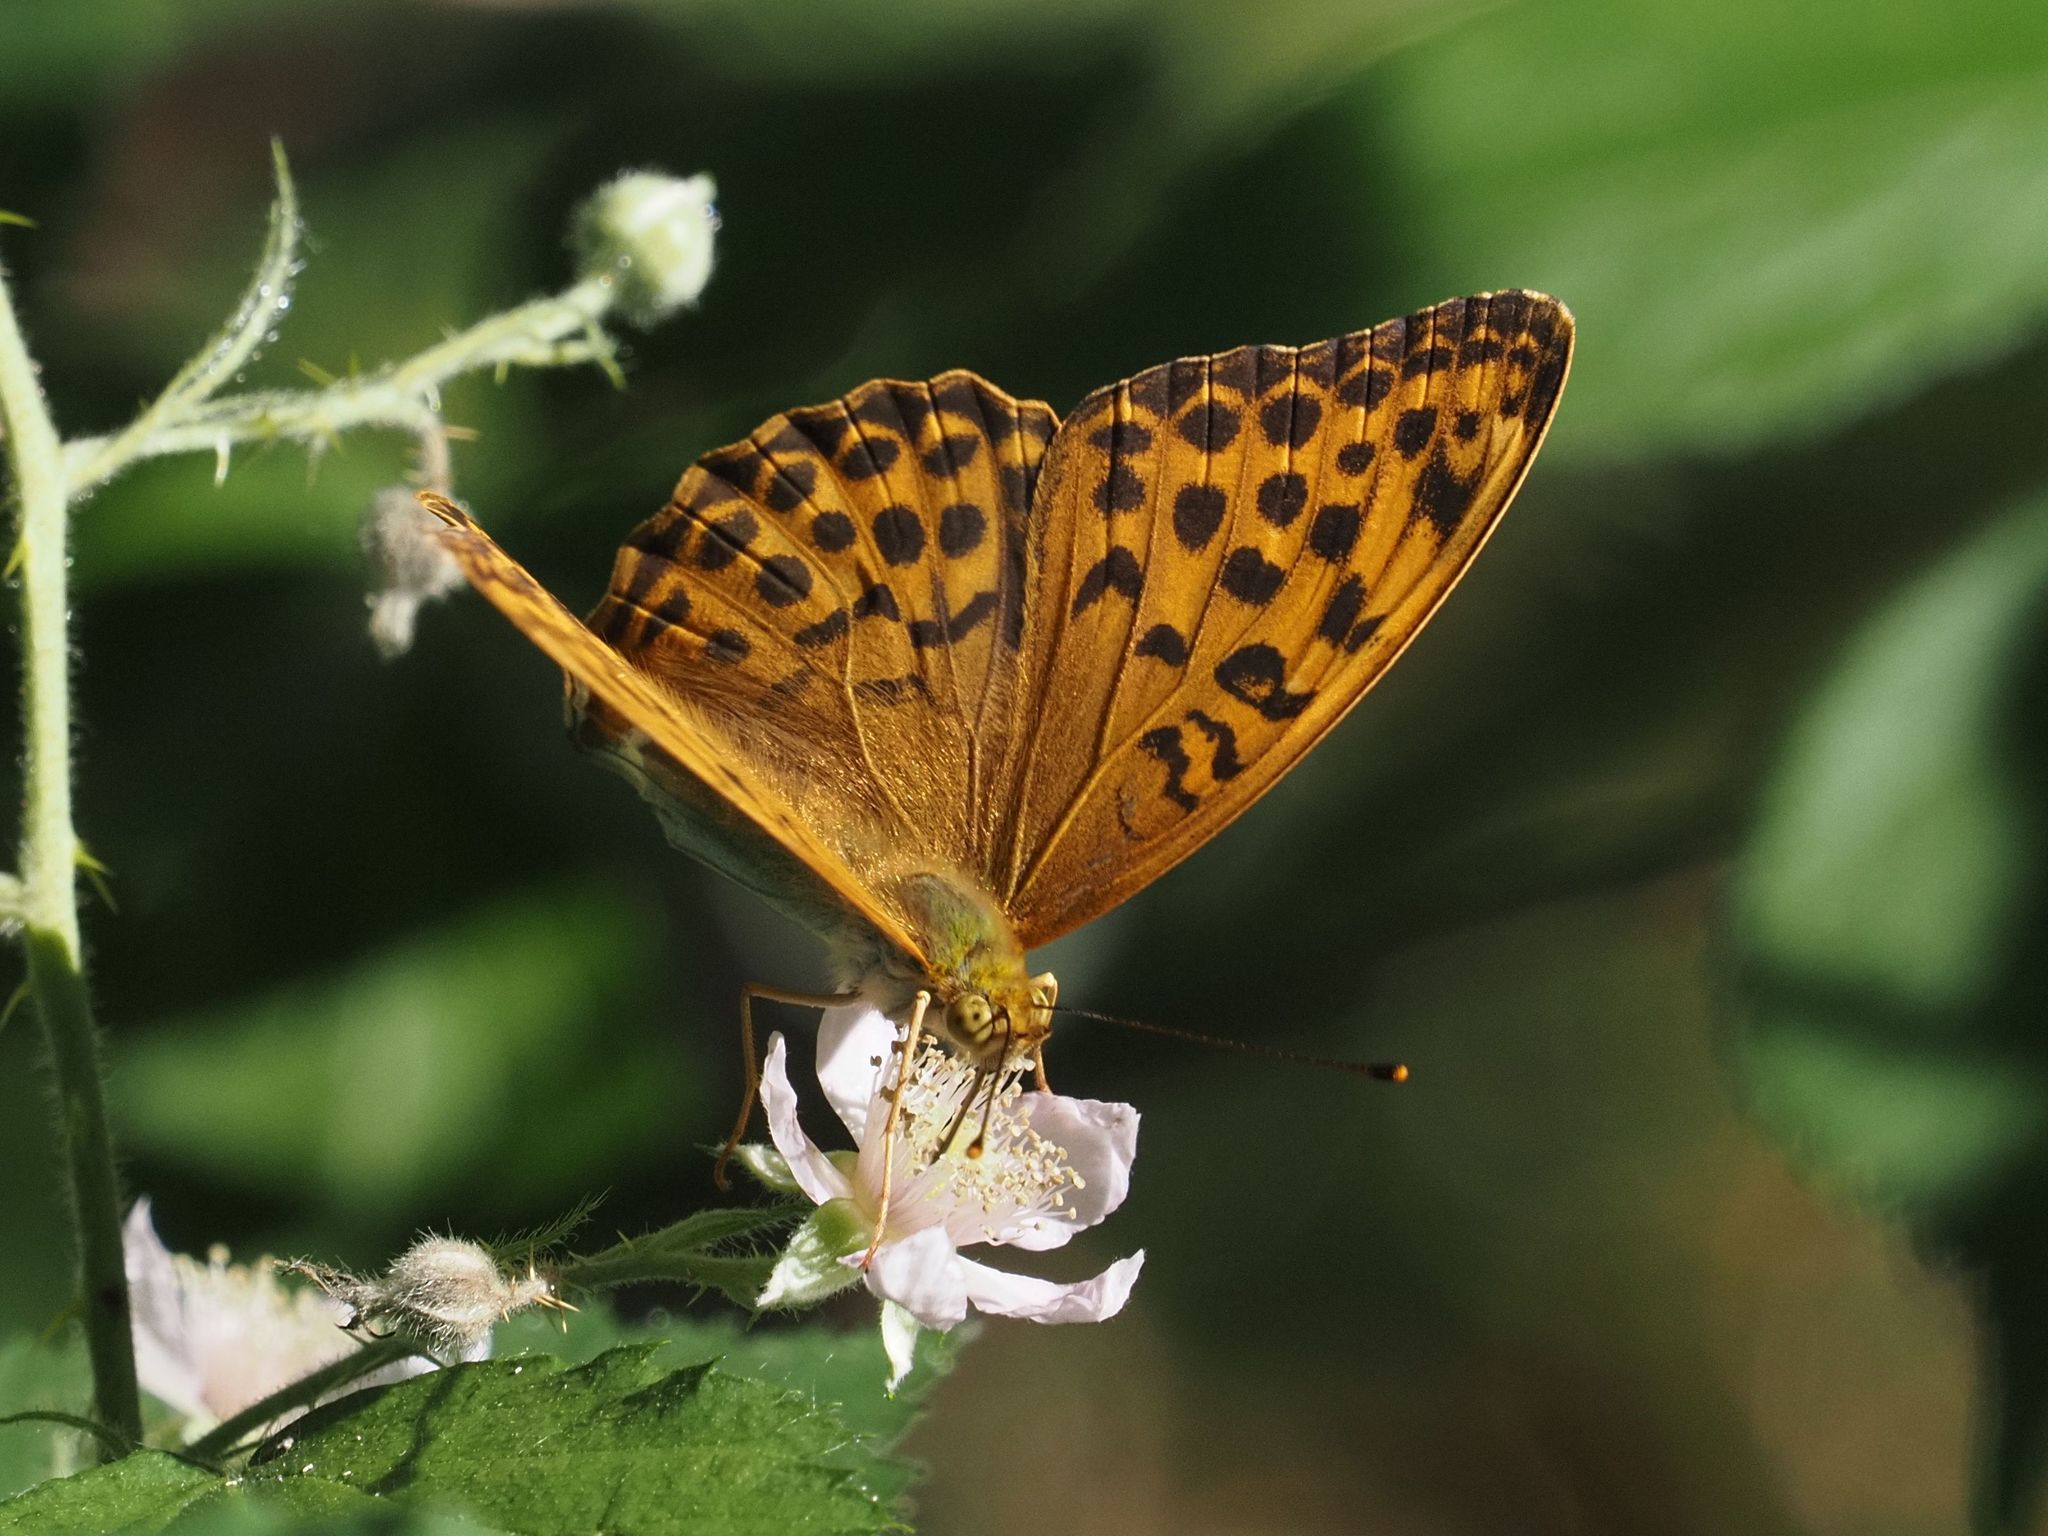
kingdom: Animalia
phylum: Arthropoda
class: Insecta
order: Lepidoptera
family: Nymphalidae
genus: Argynnis
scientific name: Argynnis paphia
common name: Silver-washed fritillary
